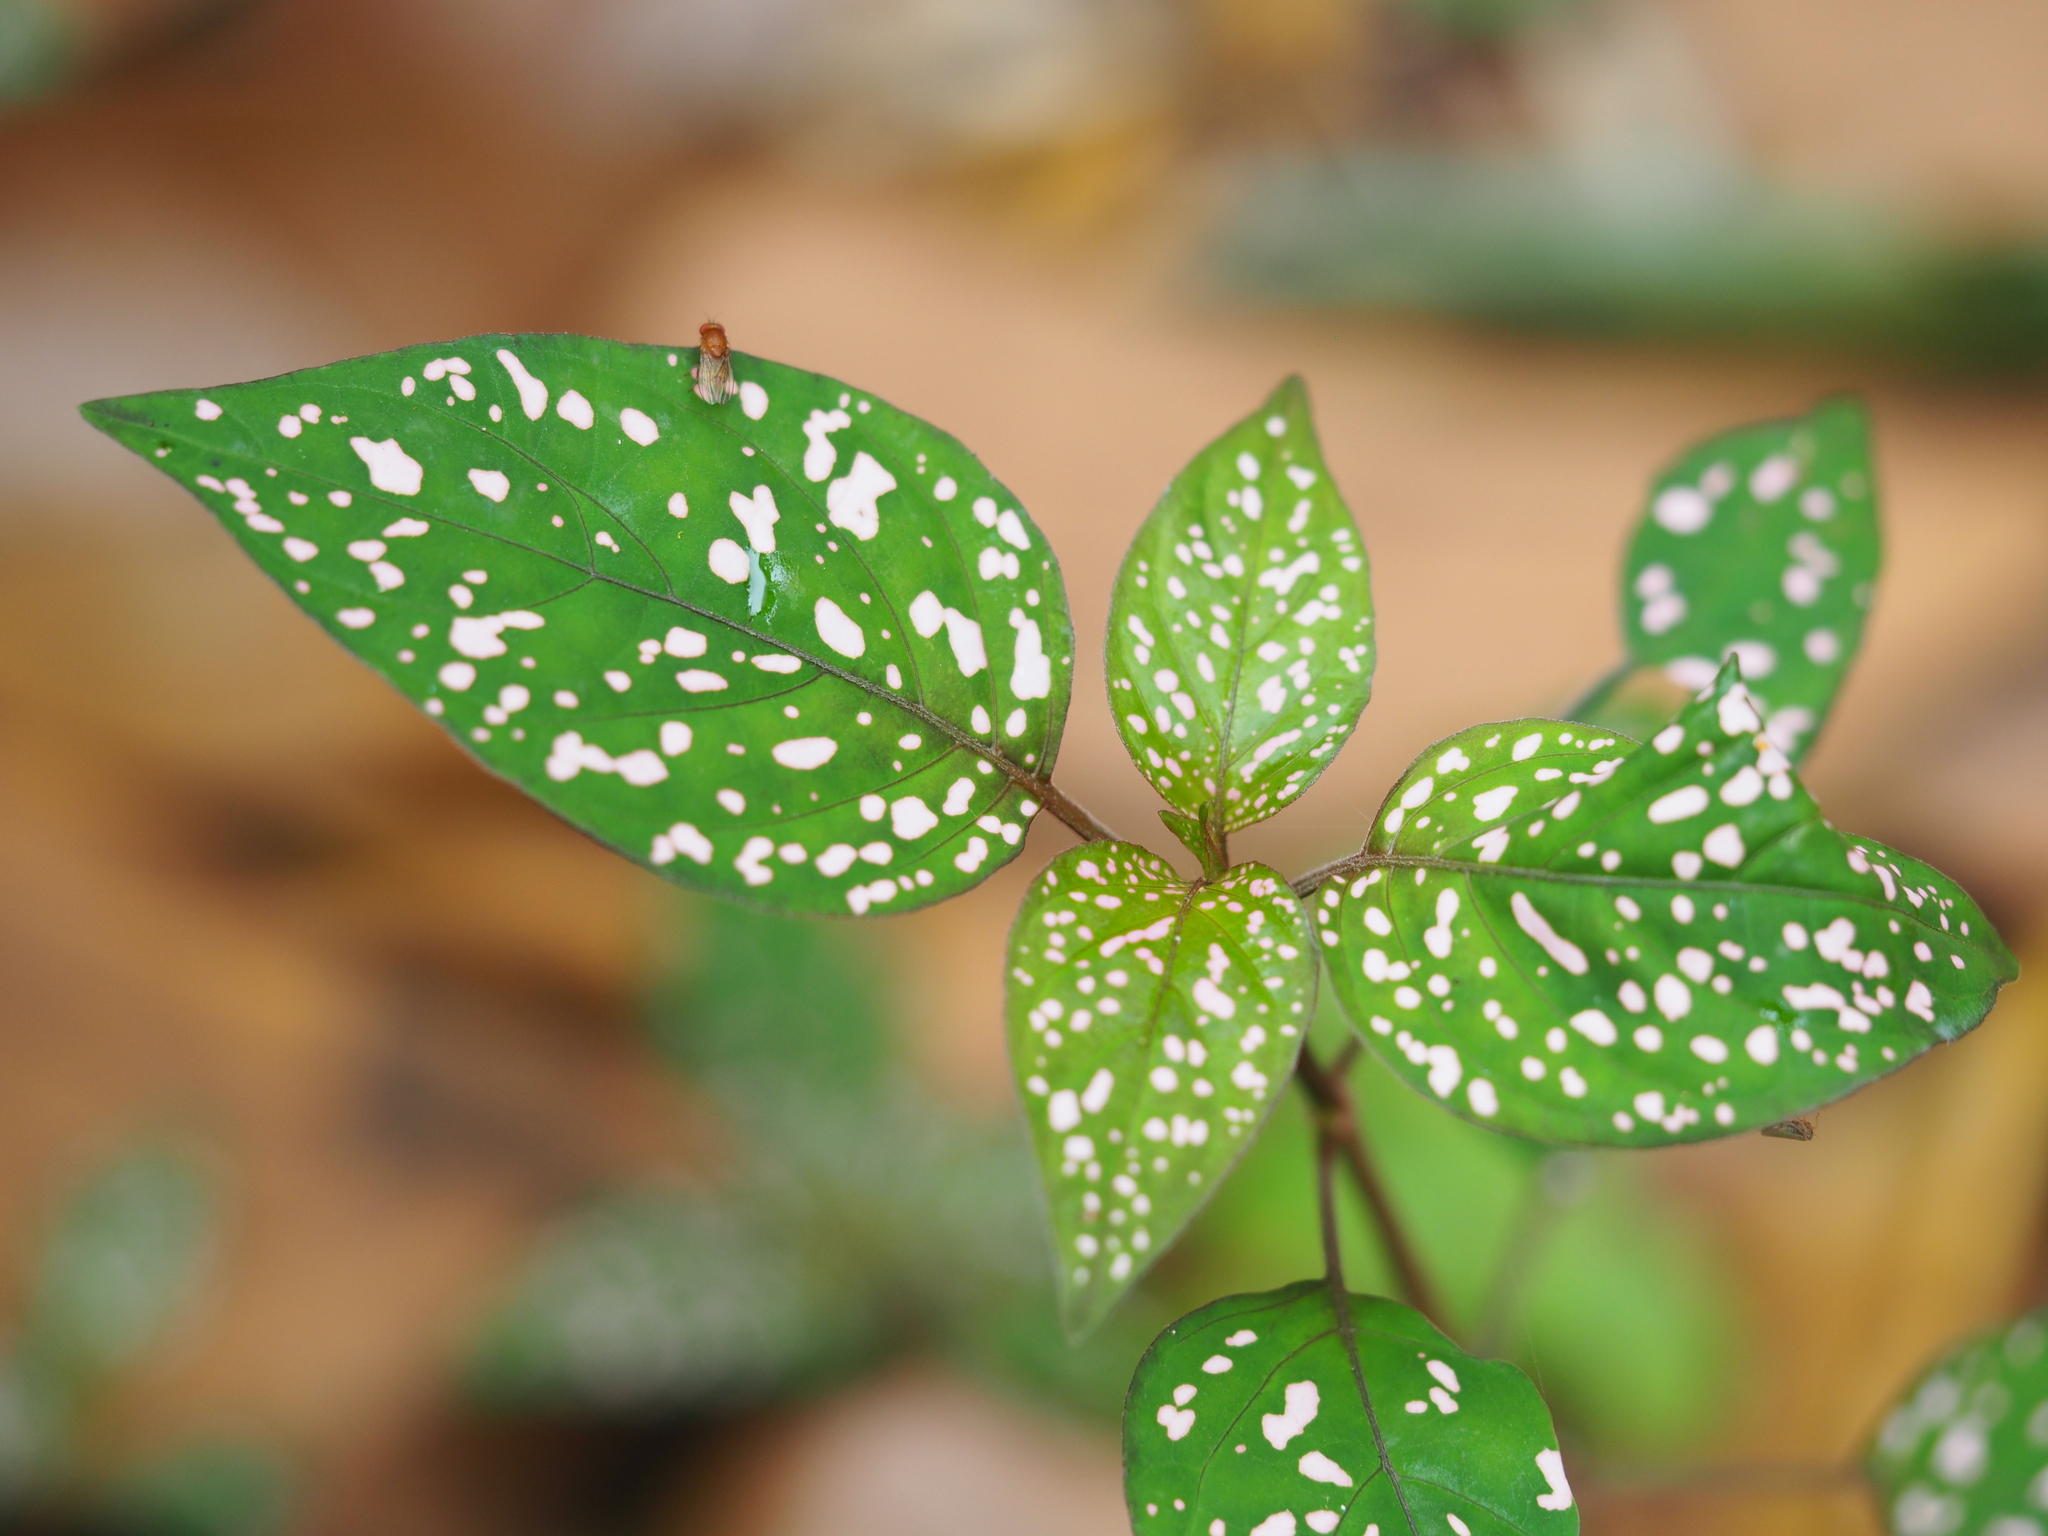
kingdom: Plantae
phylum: Tracheophyta
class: Magnoliopsida
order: Lamiales
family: Acanthaceae
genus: Hypoestes
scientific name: Hypoestes phyllostachya
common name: Polkadot-plant
